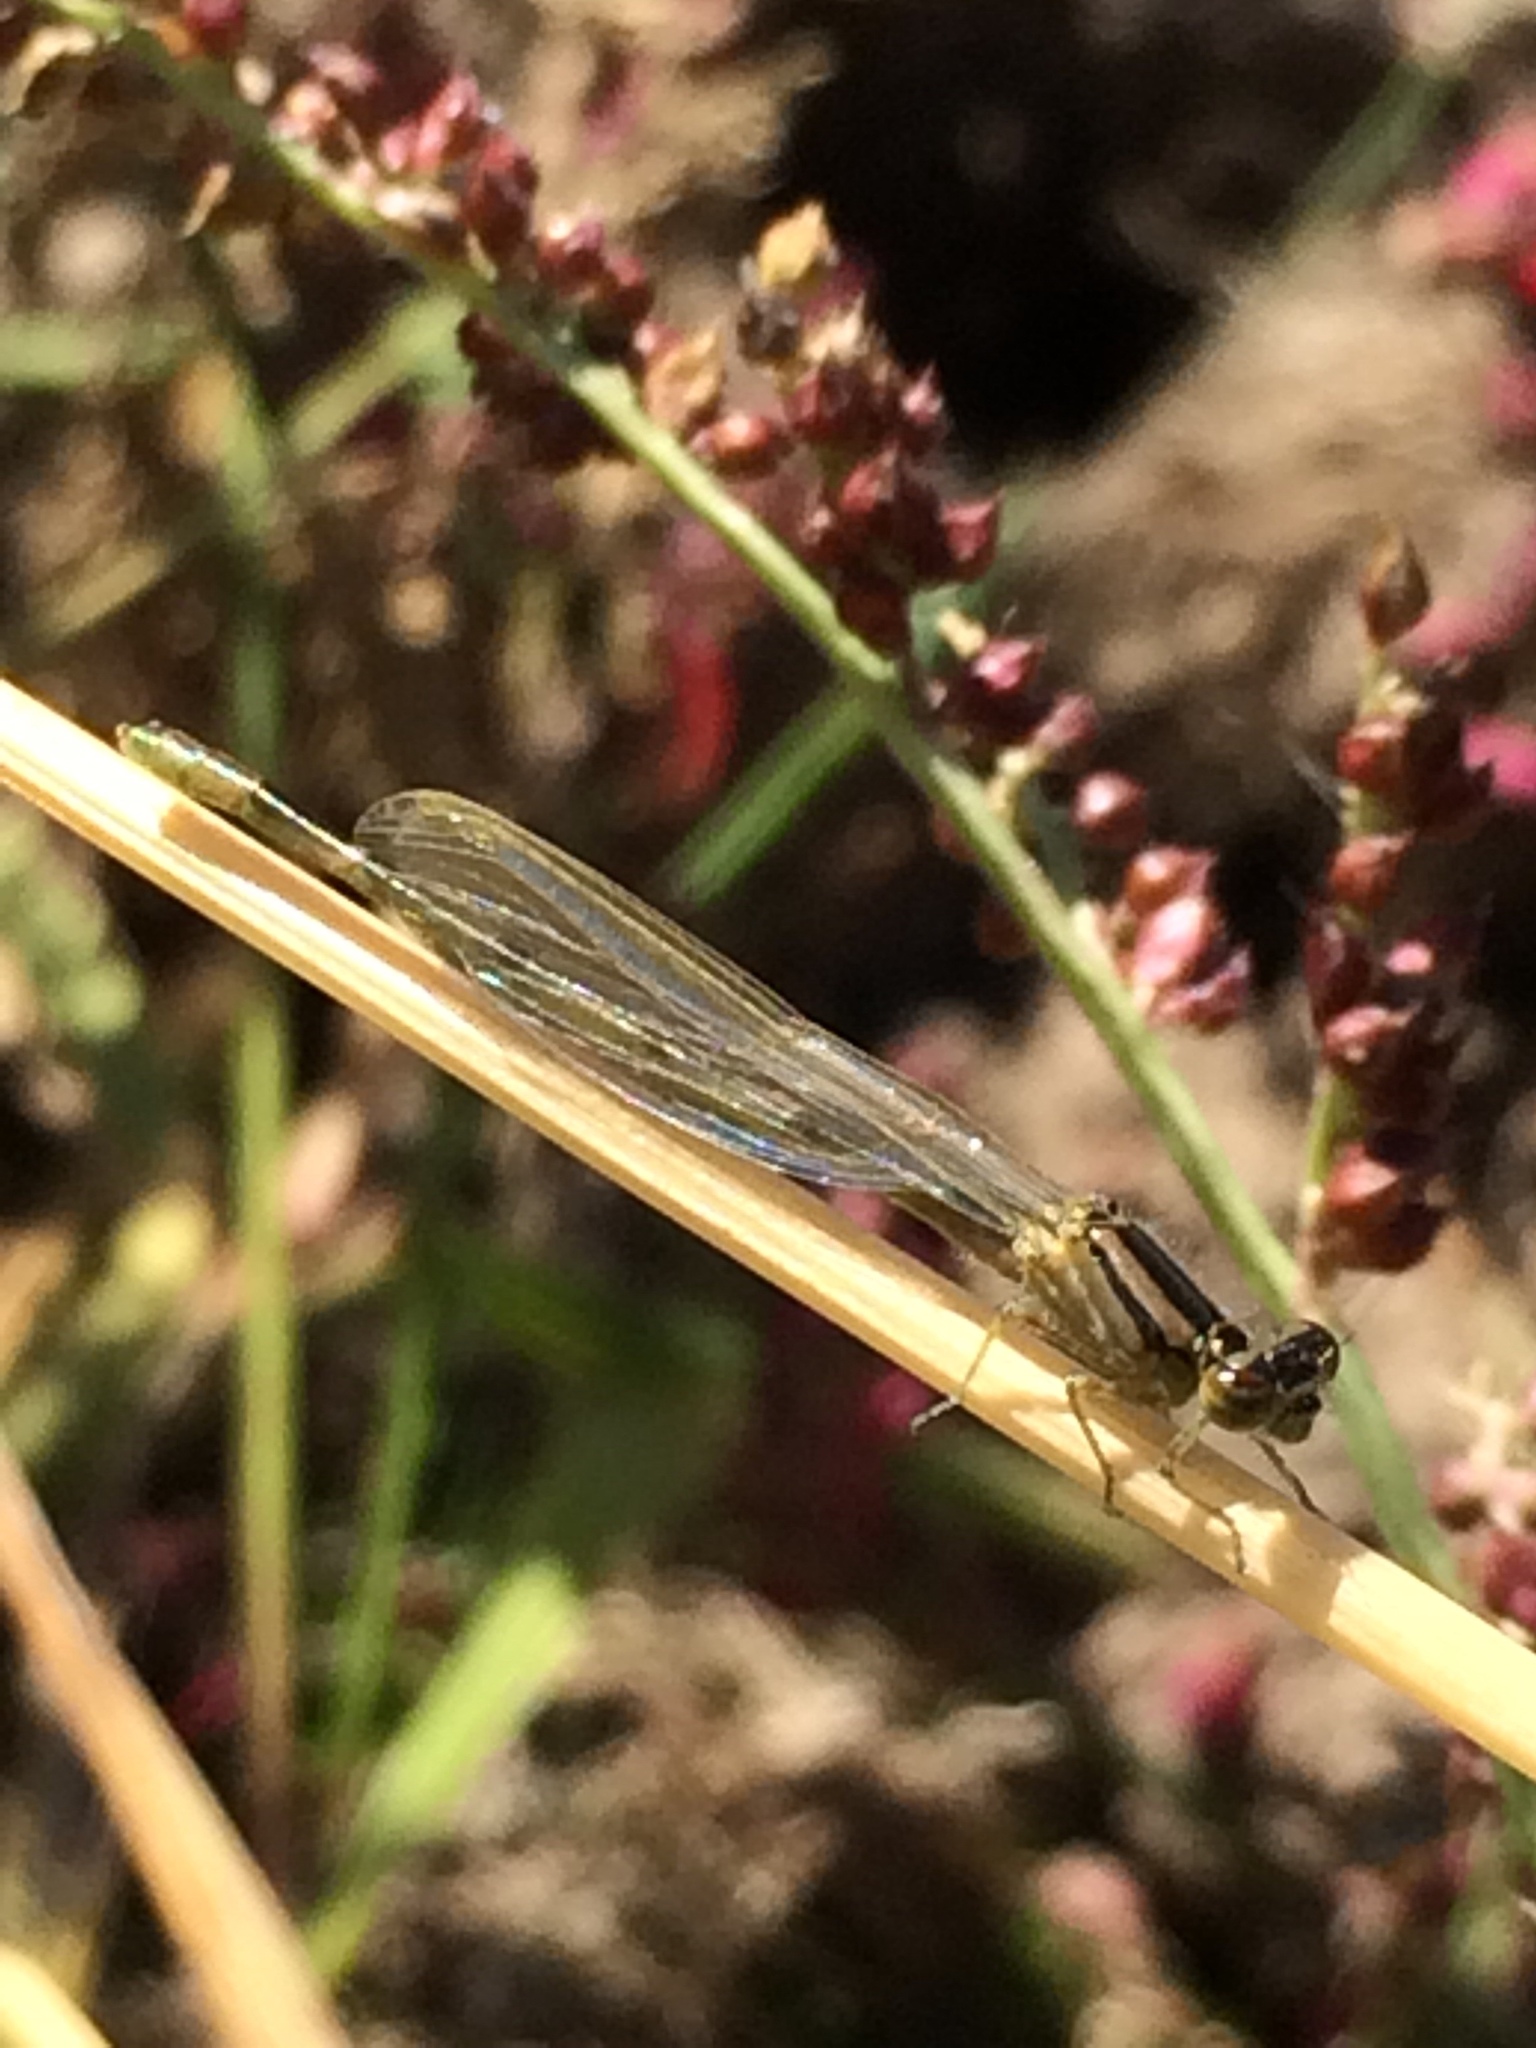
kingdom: Animalia
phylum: Arthropoda
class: Insecta
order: Odonata
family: Coenagrionidae
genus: Enallagma
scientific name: Enallagma carunculatum
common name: Tule bluet
